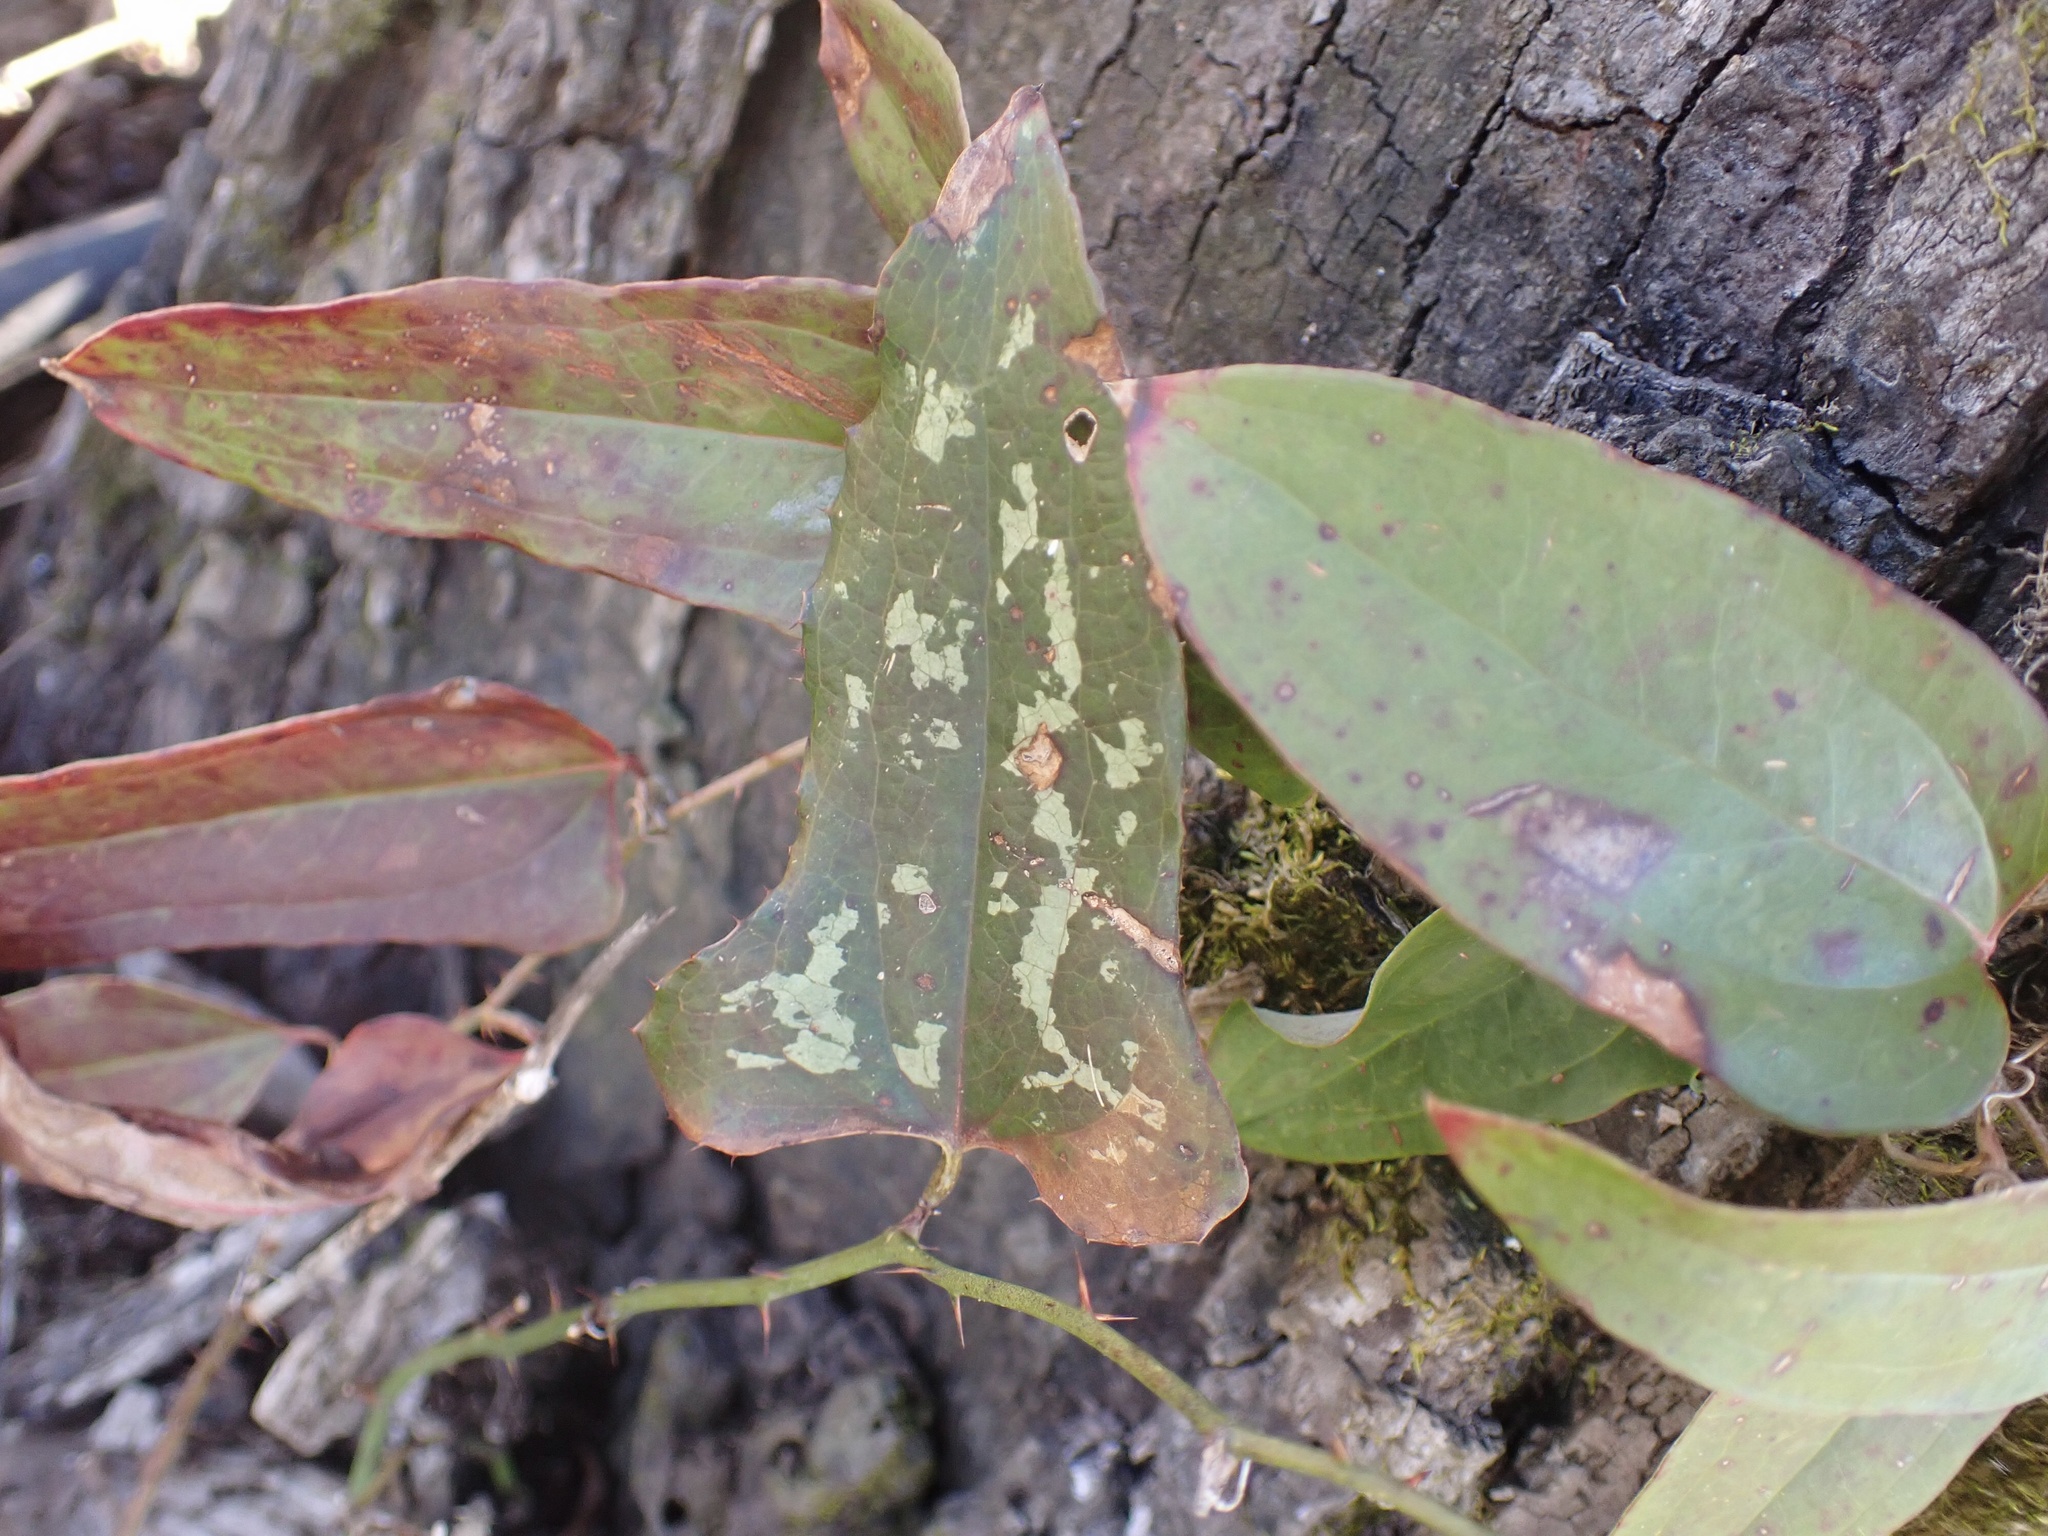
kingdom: Plantae
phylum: Tracheophyta
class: Liliopsida
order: Liliales
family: Smilacaceae
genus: Smilax
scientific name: Smilax bona-nox
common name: Catbrier
